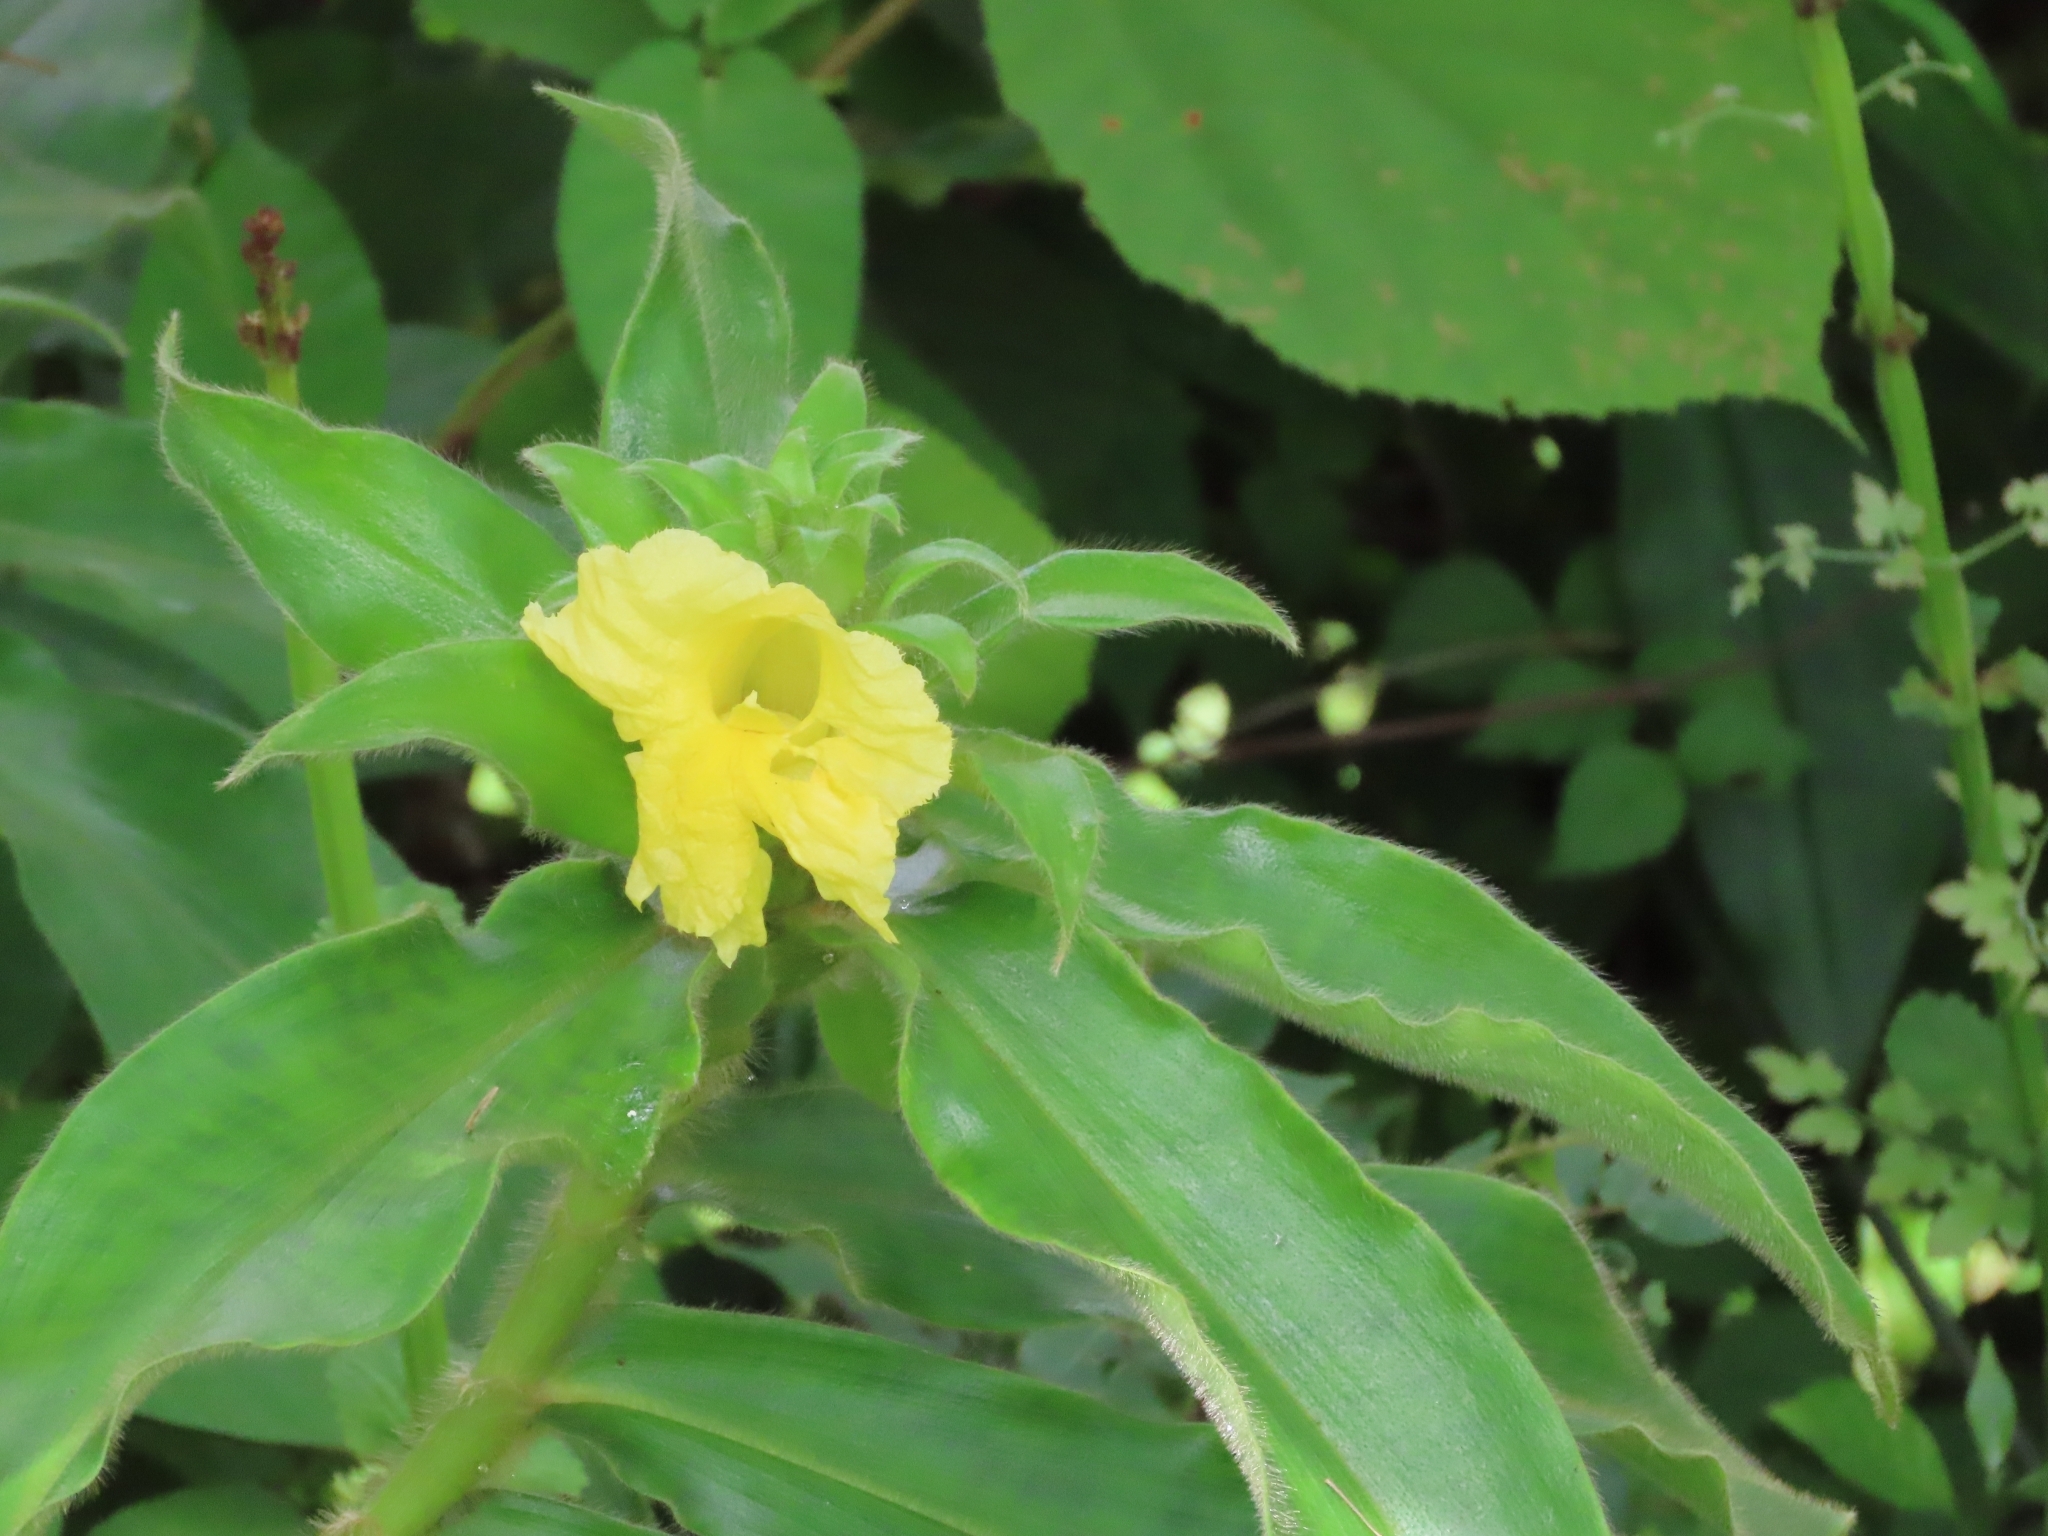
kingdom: Plantae
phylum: Tracheophyta
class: Liliopsida
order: Zingiberales
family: Costaceae
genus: Costus
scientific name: Costus villosissimus
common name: Spiral flag
